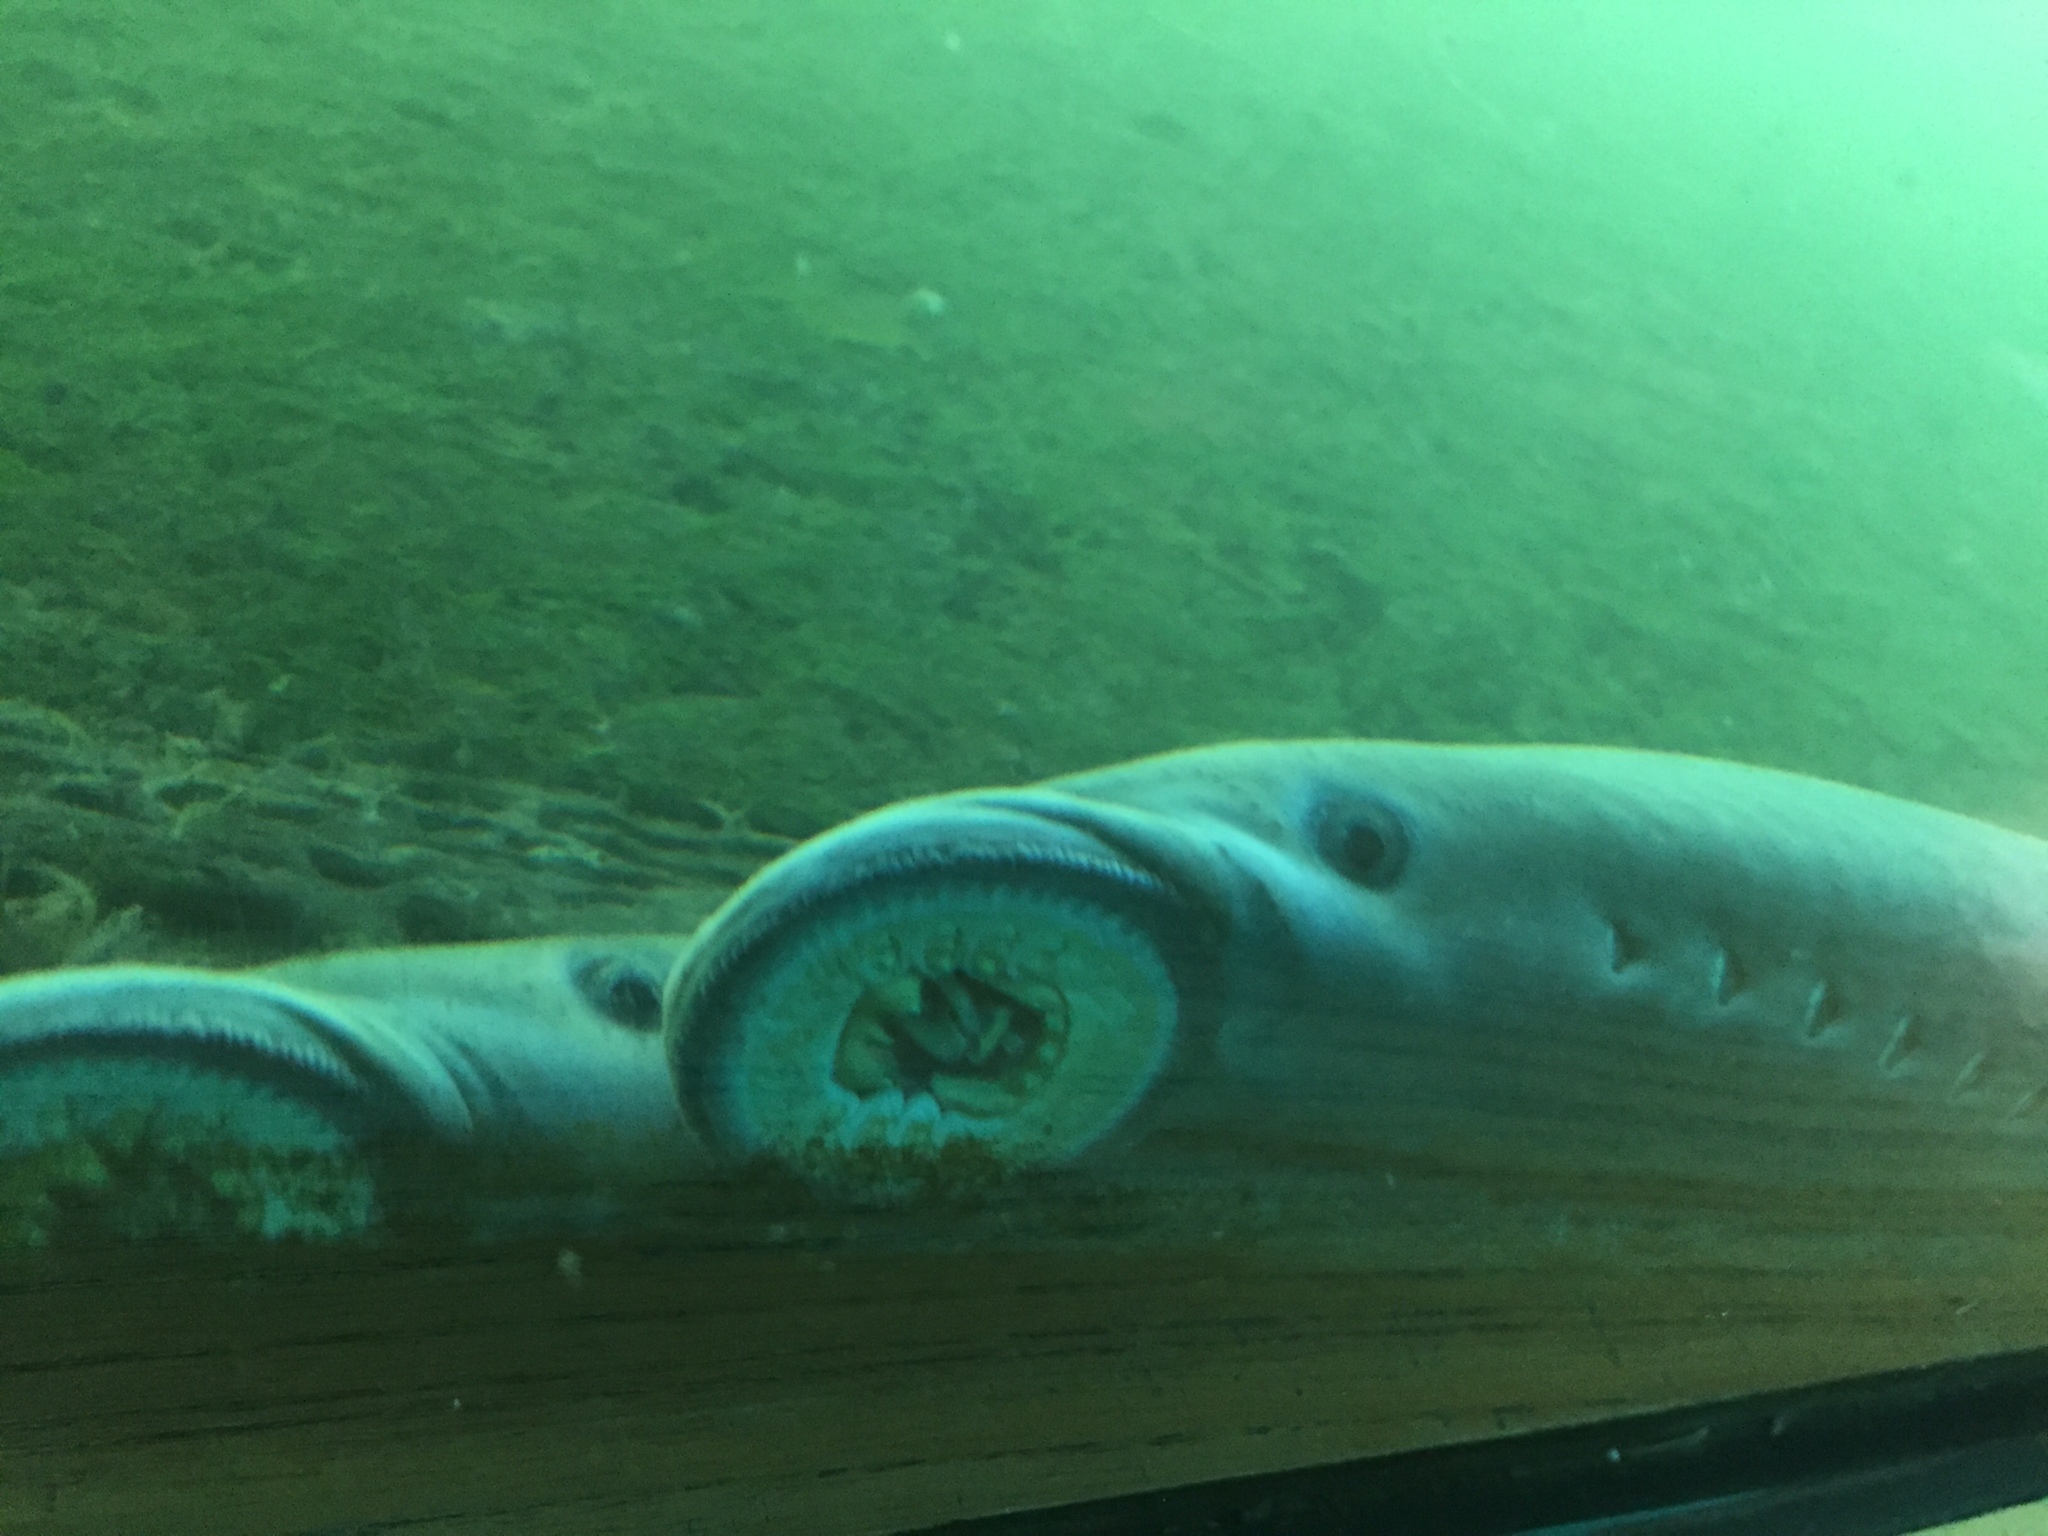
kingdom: Animalia
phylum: Chordata
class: Petromyzonti
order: Petromyzontiformes
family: Petromyzontidae
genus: Entosphenus
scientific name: Entosphenus tridentatus
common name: Pacific lamprey
